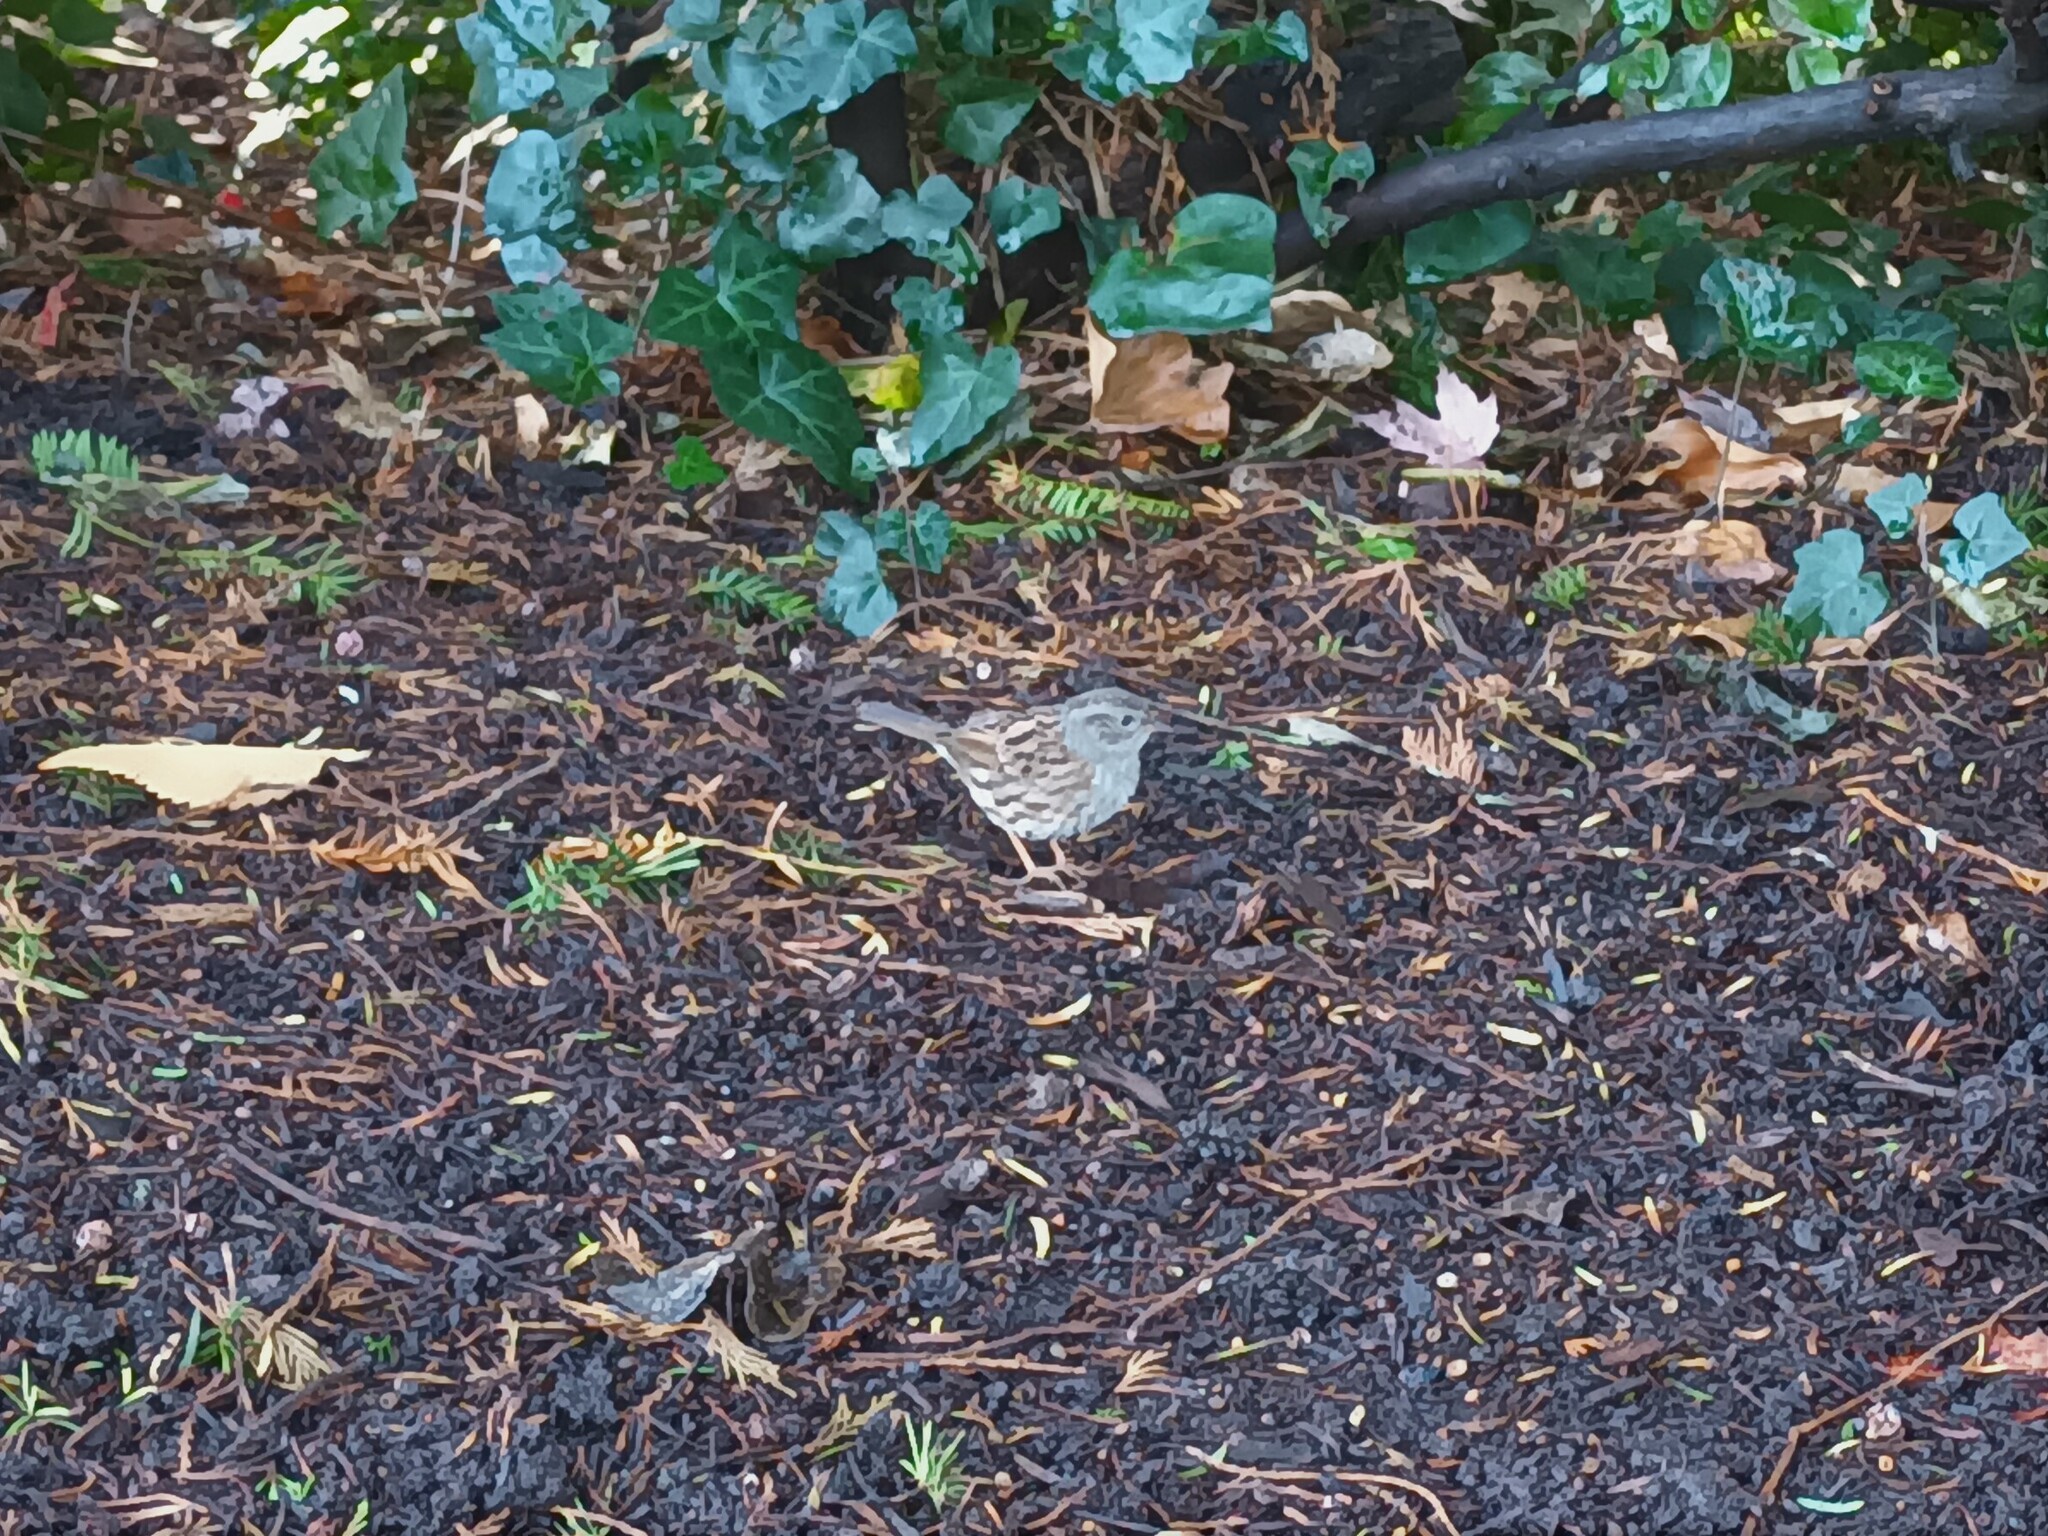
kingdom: Animalia
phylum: Chordata
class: Aves
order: Passeriformes
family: Prunellidae
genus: Prunella
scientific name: Prunella modularis
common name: Dunnock
